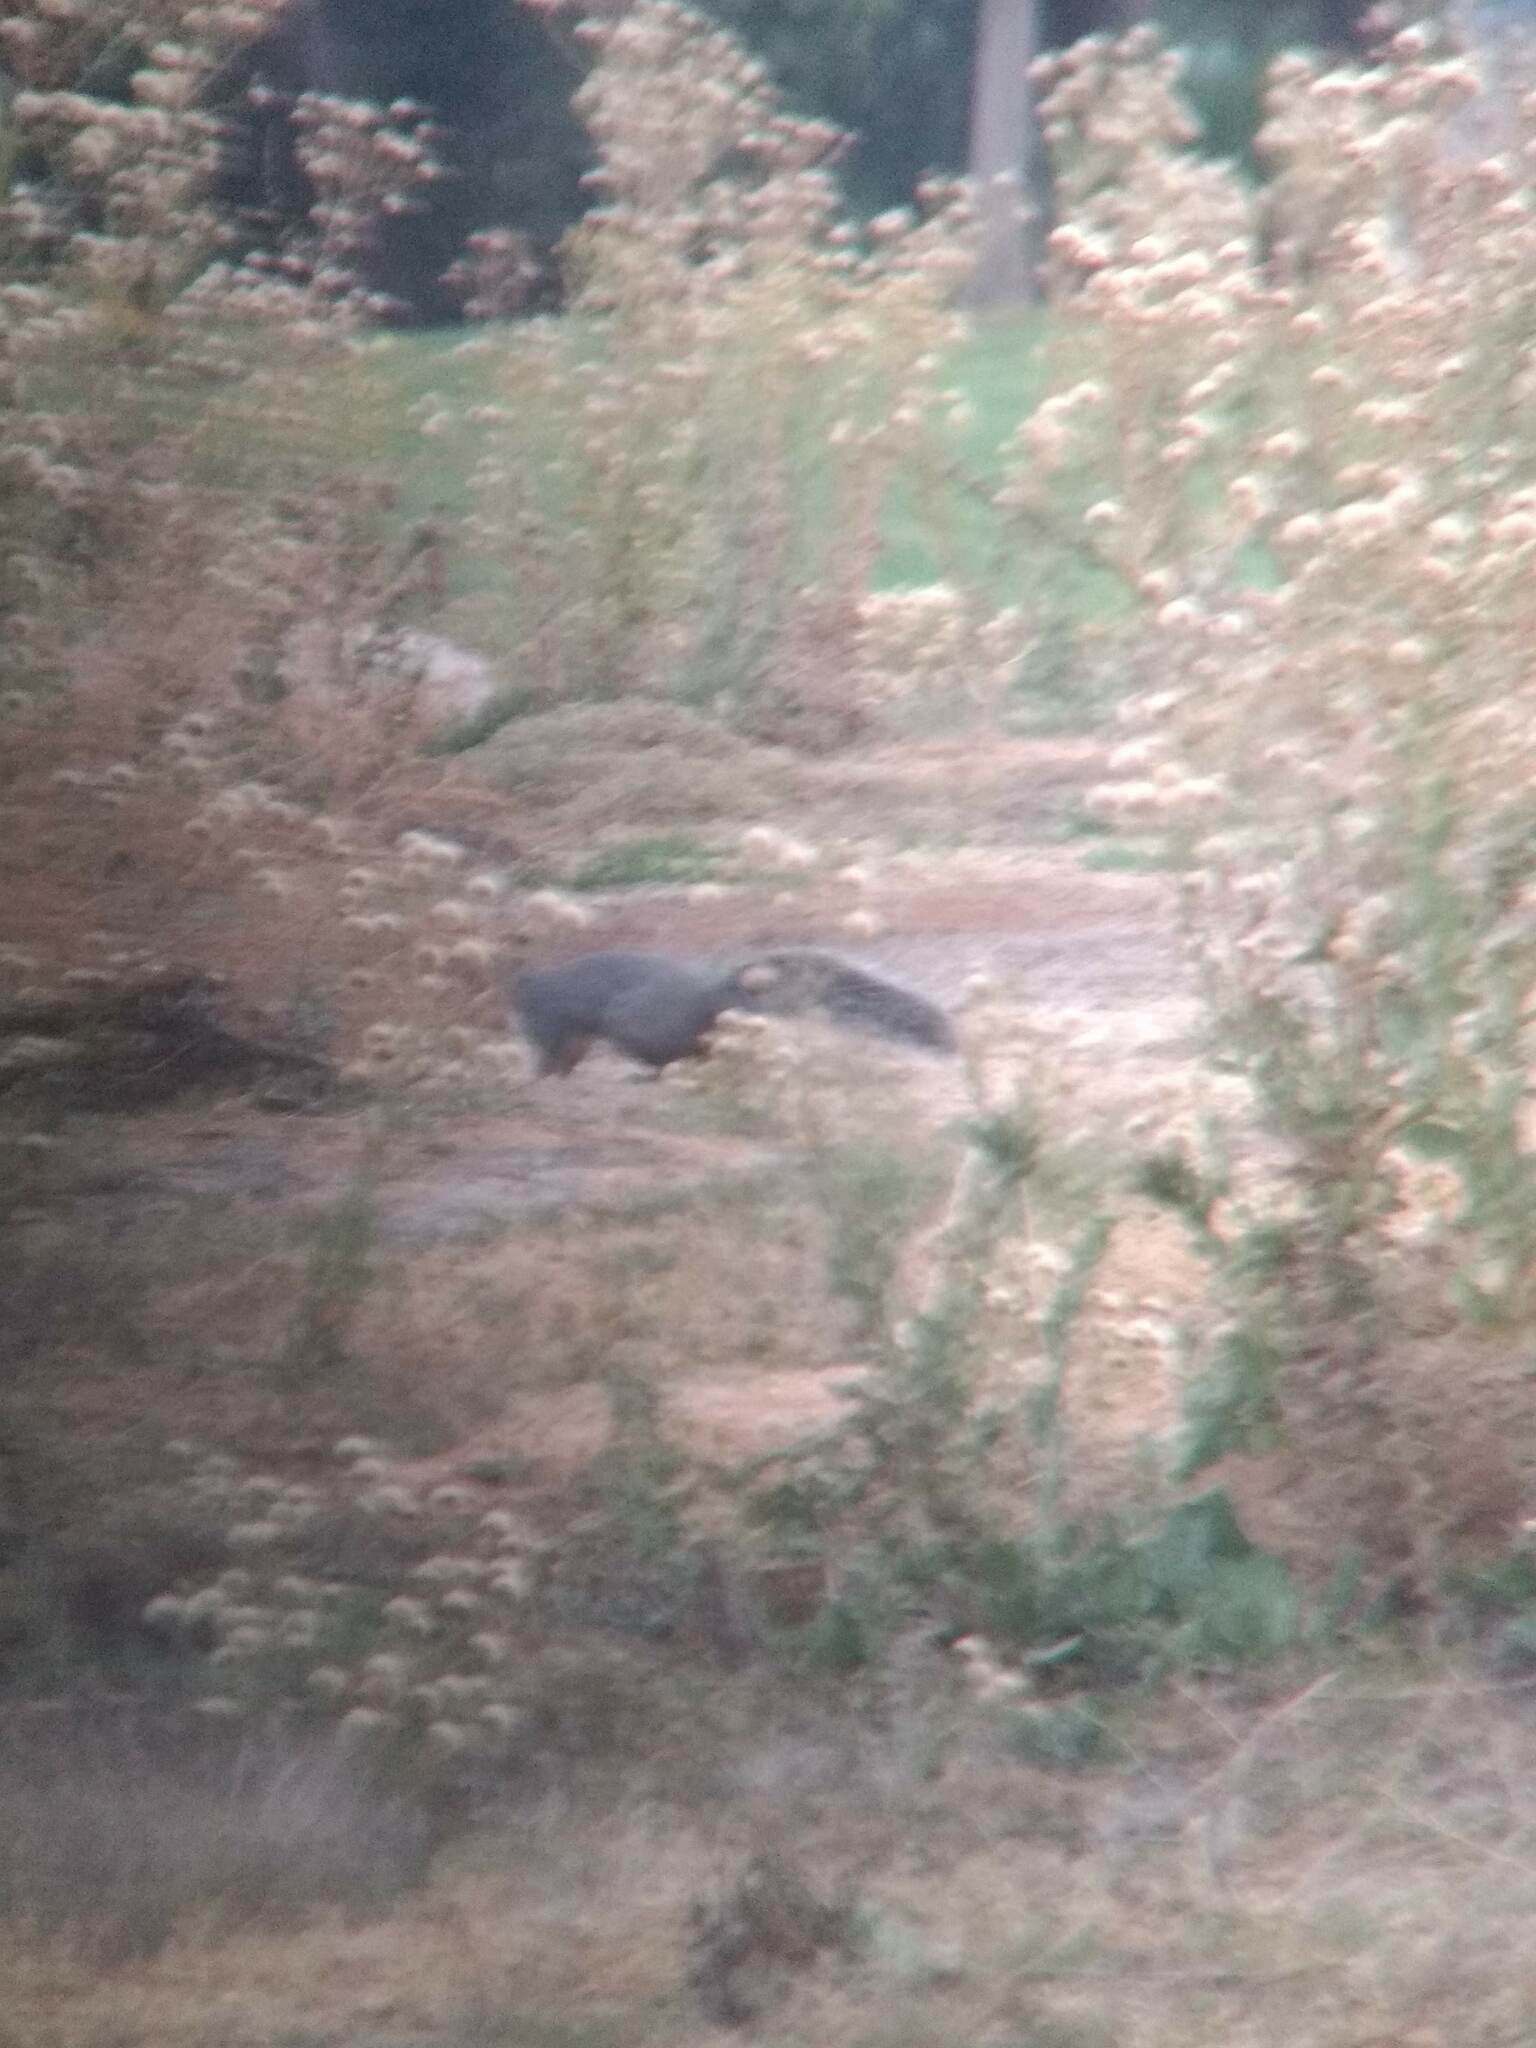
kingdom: Animalia
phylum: Chordata
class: Mammalia
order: Rodentia
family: Sciuridae
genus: Sciurus
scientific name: Sciurus griseus
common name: Western gray squirrel
